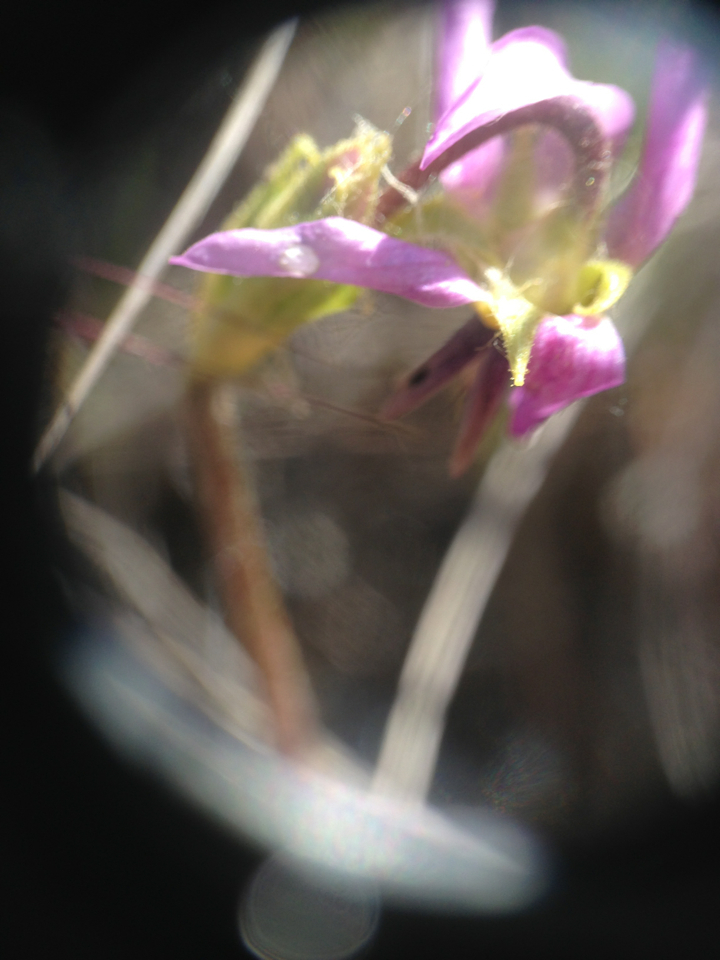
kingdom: Plantae
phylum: Tracheophyta
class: Magnoliopsida
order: Ericales
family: Primulaceae
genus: Dodecatheon
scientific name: Dodecatheon clevelandii
